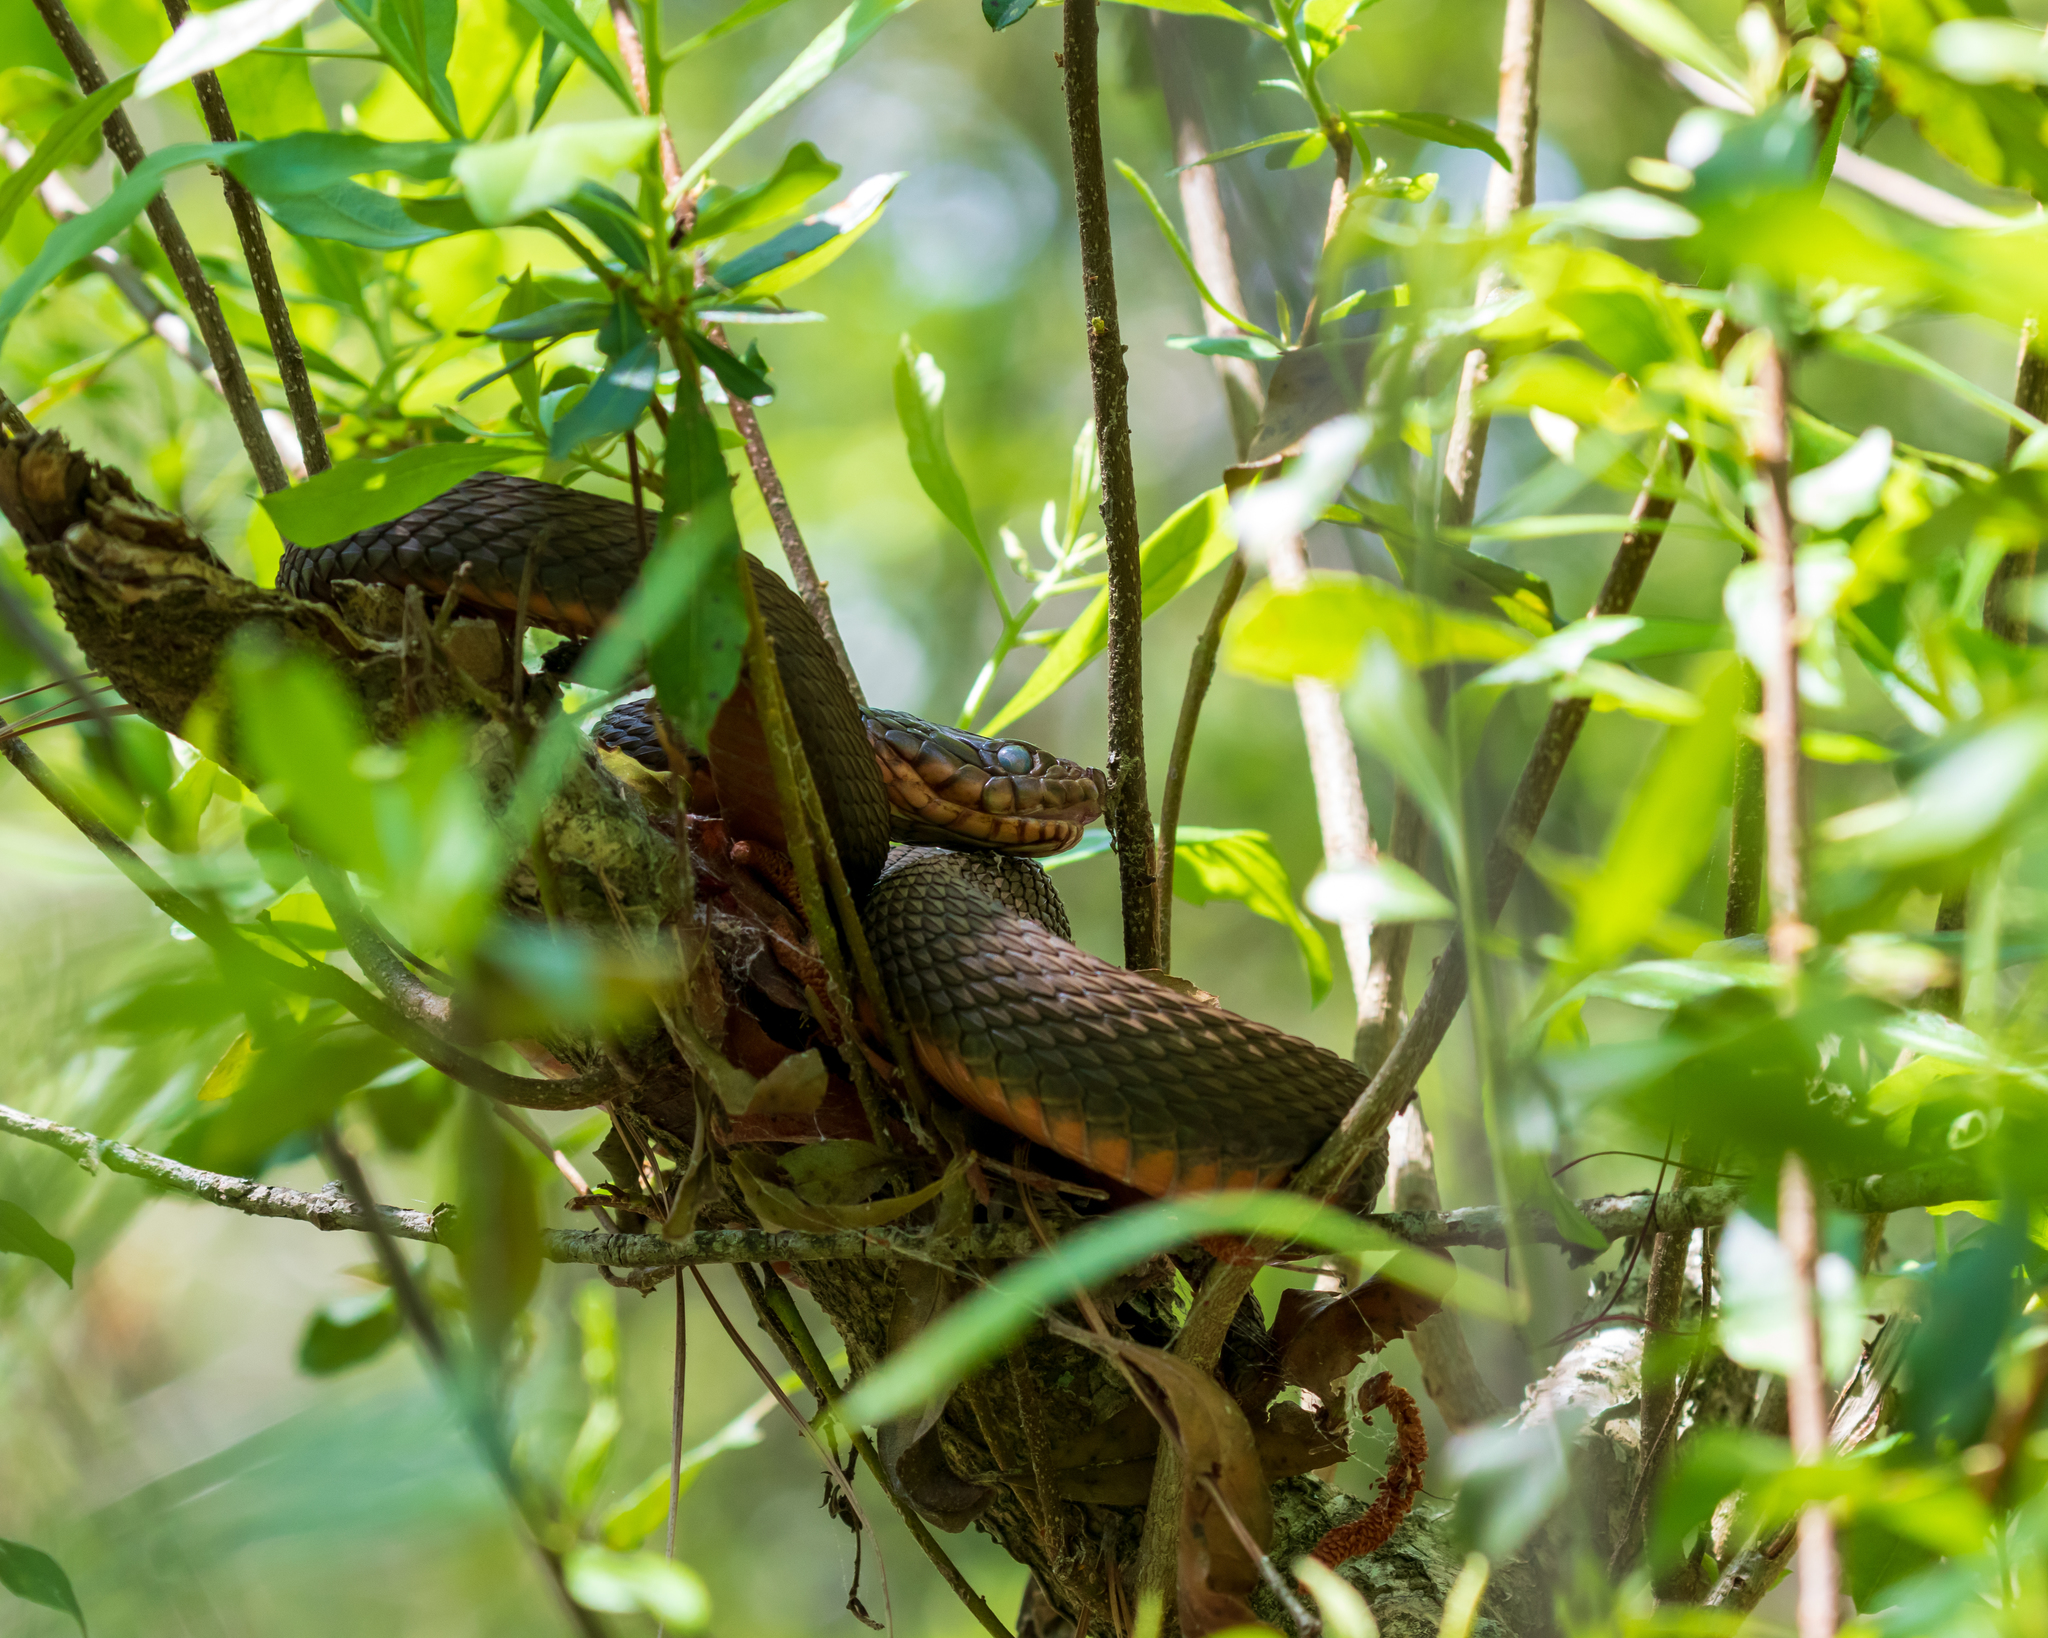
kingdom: Animalia
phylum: Chordata
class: Squamata
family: Colubridae
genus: Nerodia
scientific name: Nerodia erythrogaster
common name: Plainbelly water snake
